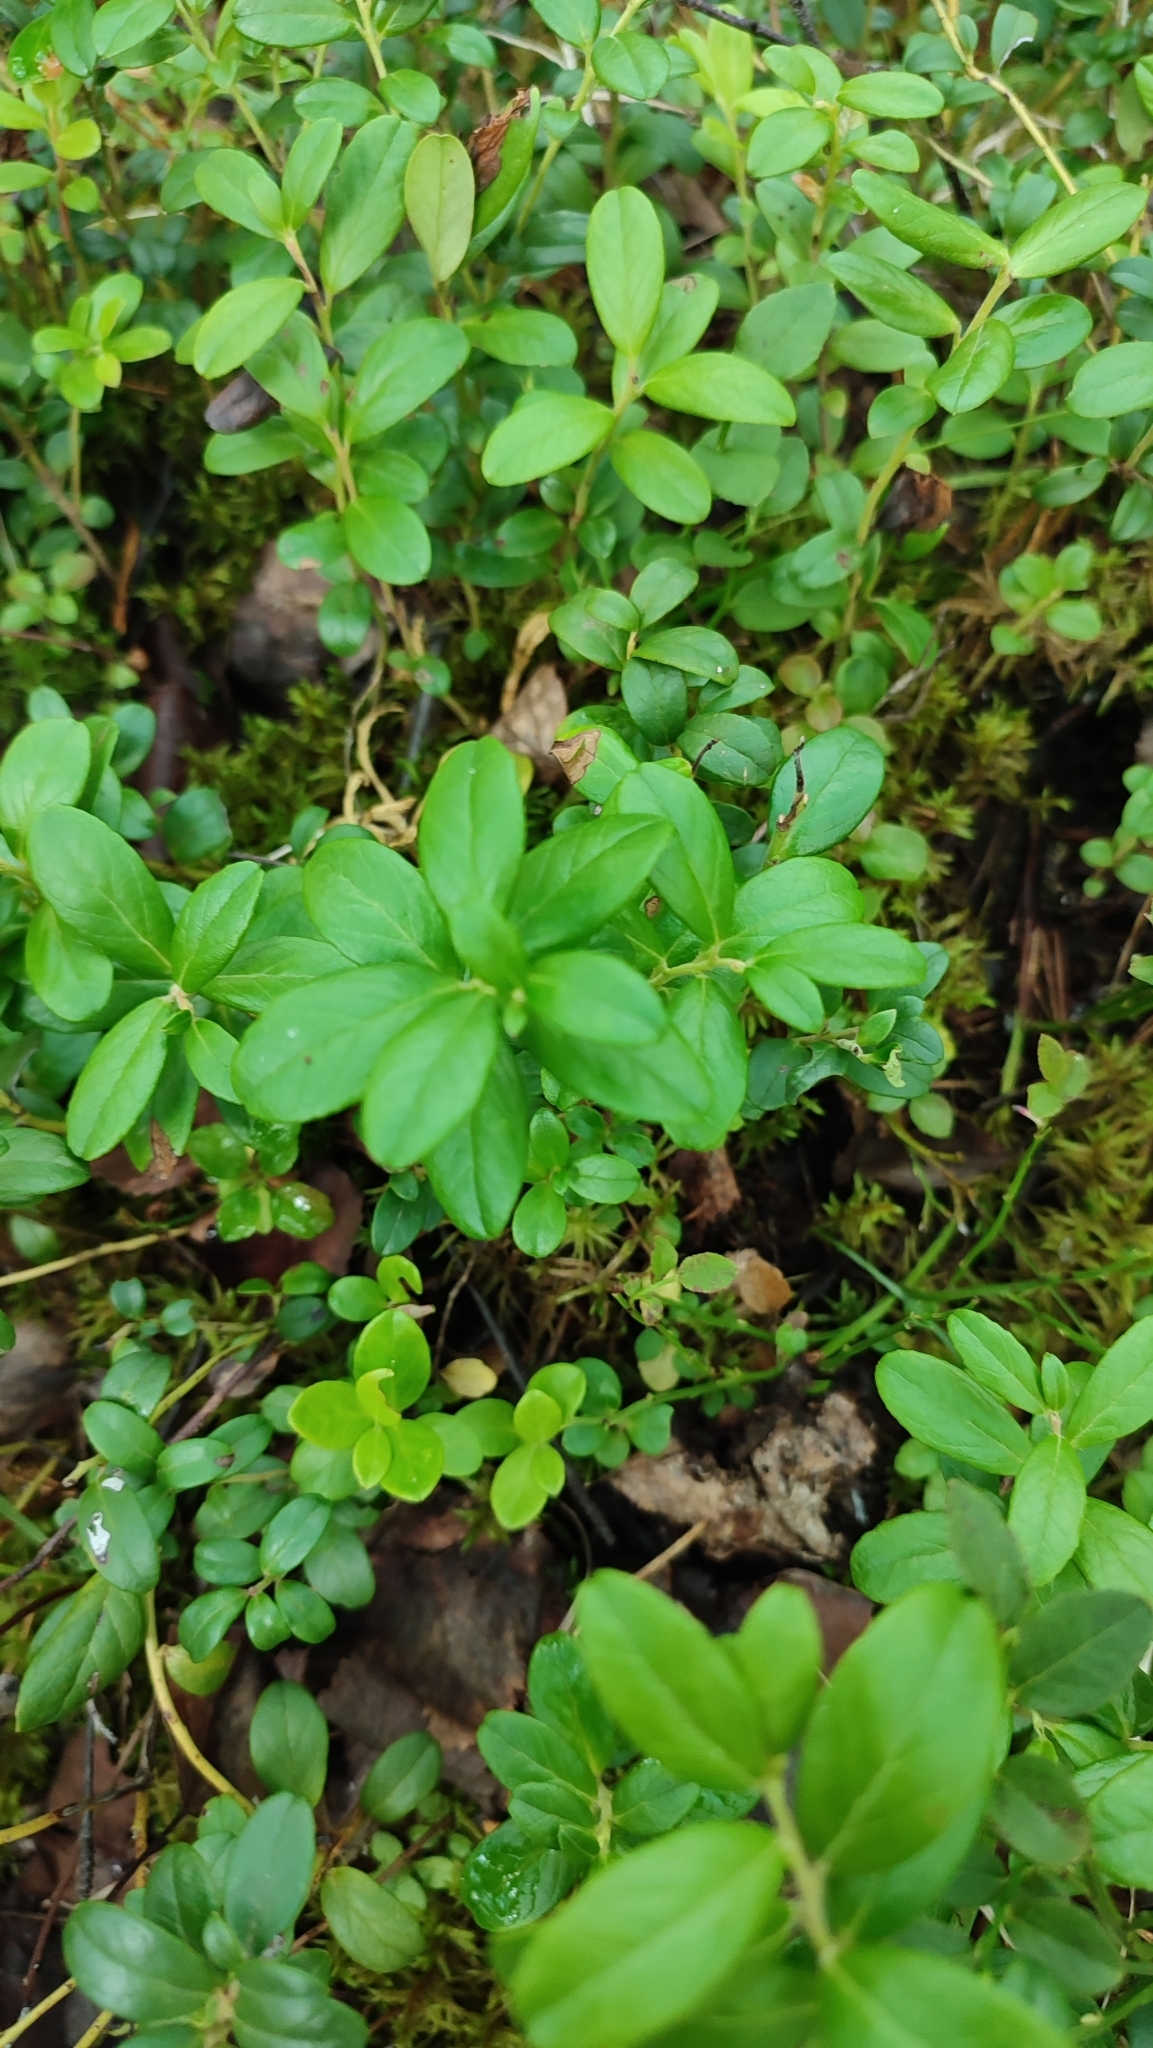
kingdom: Plantae
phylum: Tracheophyta
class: Magnoliopsida
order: Ericales
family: Ericaceae
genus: Vaccinium
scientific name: Vaccinium vitis-idaea
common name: Cowberry
